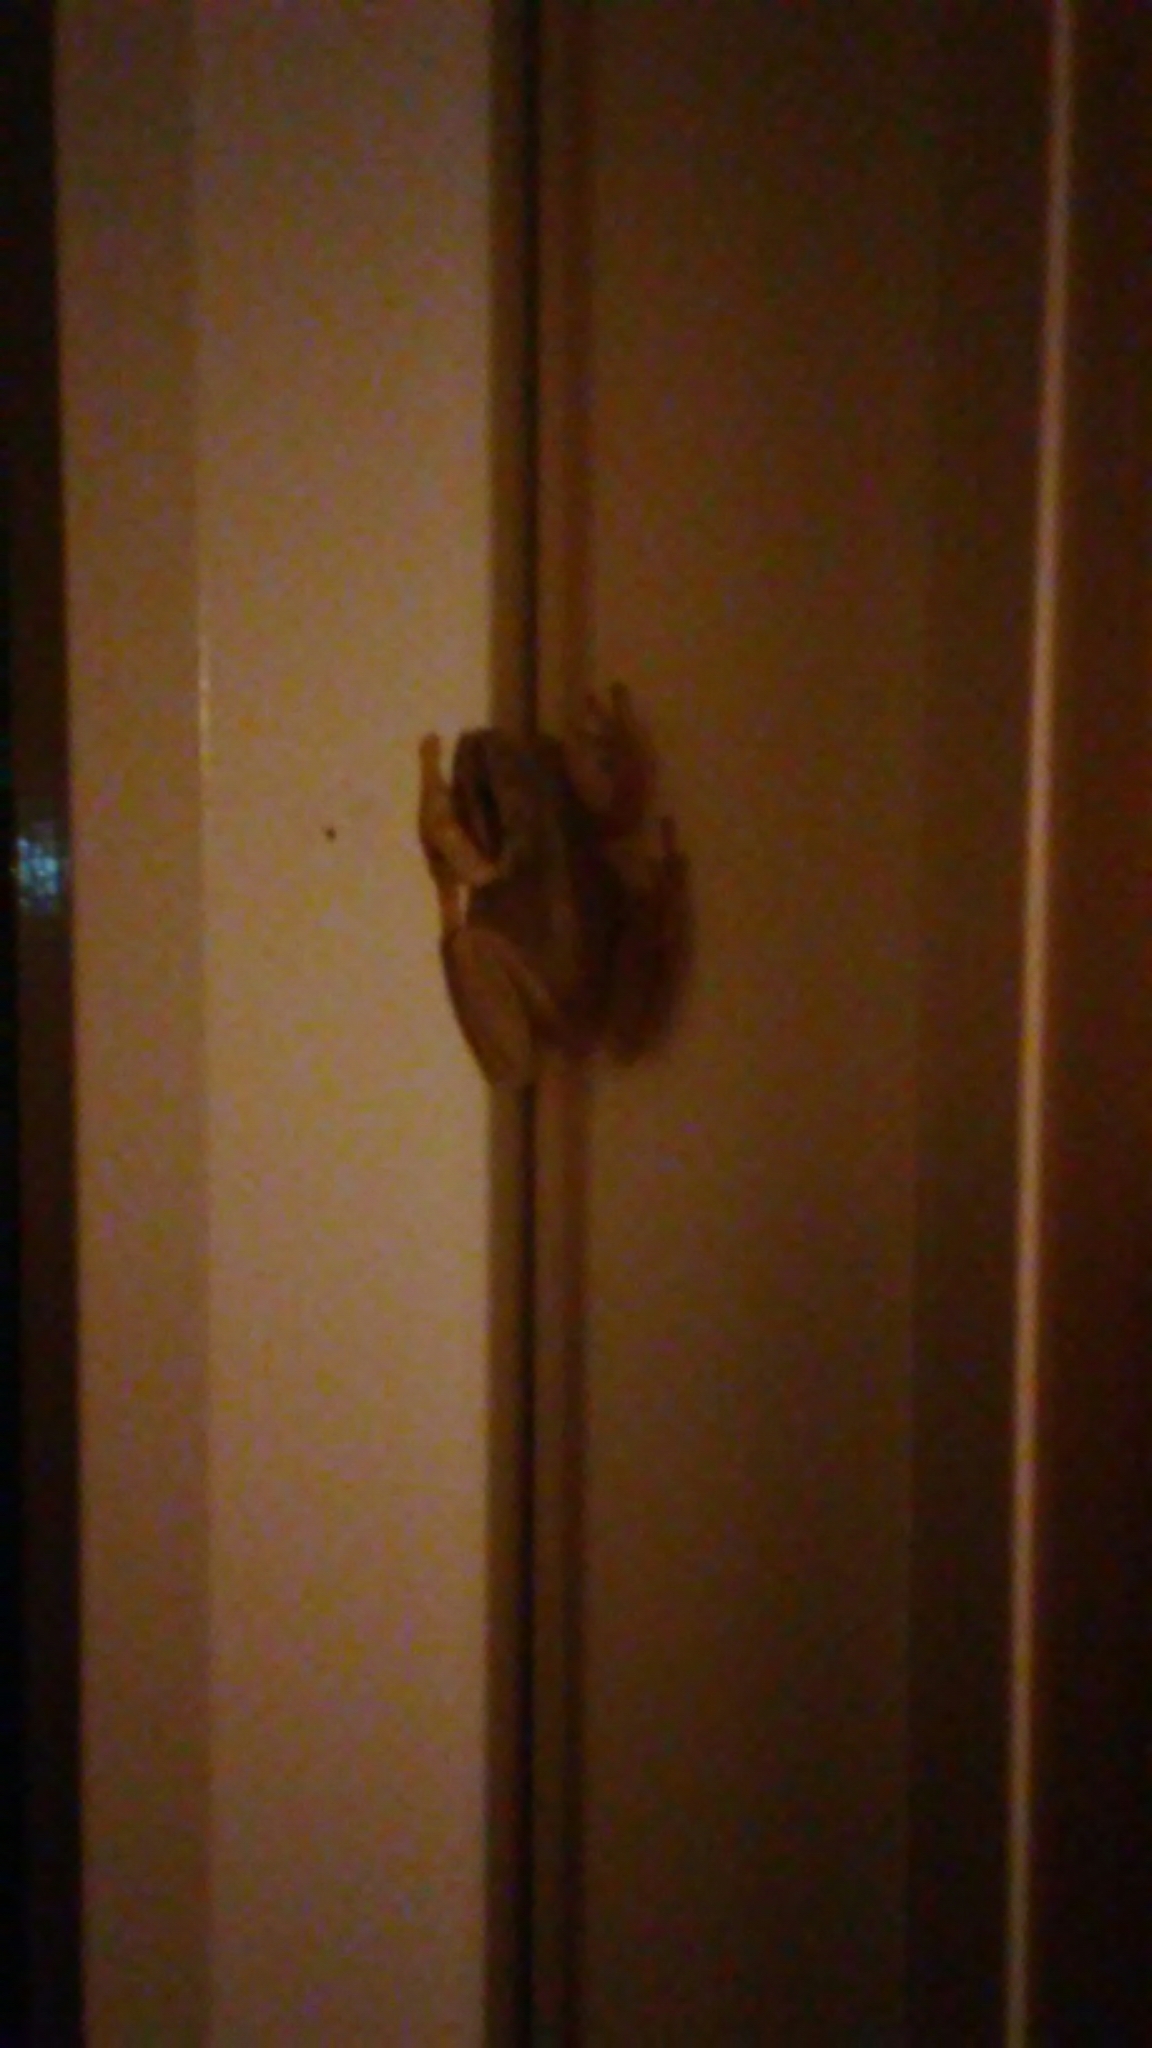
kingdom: Animalia
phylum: Chordata
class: Amphibia
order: Anura
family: Hylidae
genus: Pseudacris
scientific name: Pseudacris regilla
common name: Pacific chorus frog
